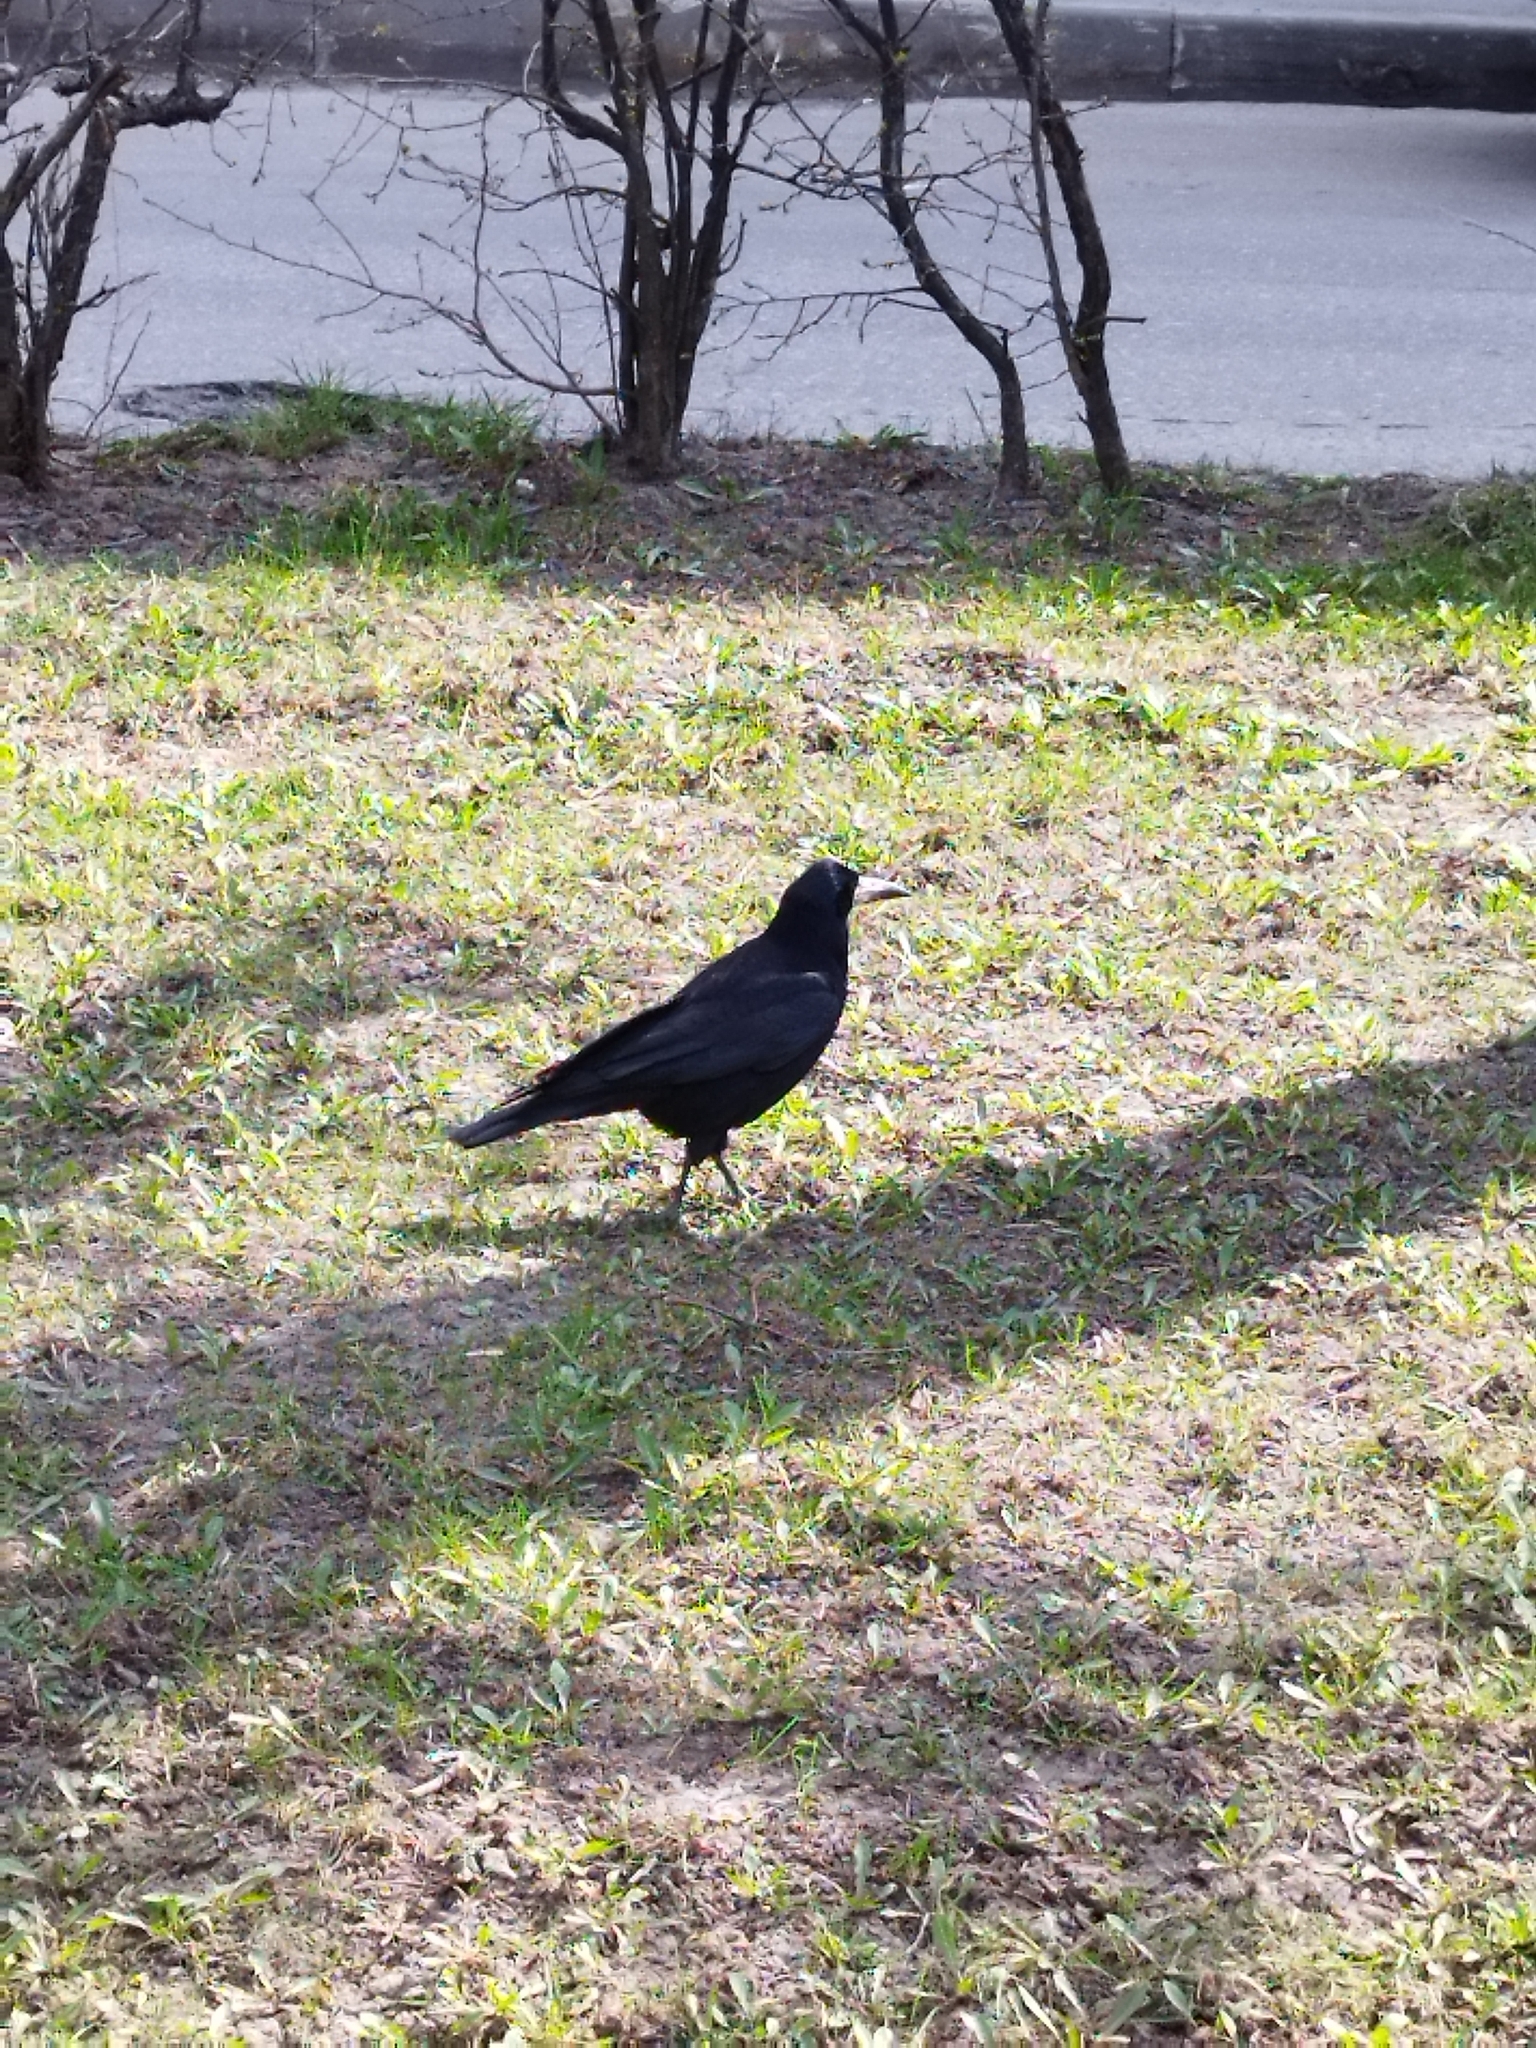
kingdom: Animalia
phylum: Chordata
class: Aves
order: Passeriformes
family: Corvidae
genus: Corvus
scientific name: Corvus frugilegus
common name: Rook
